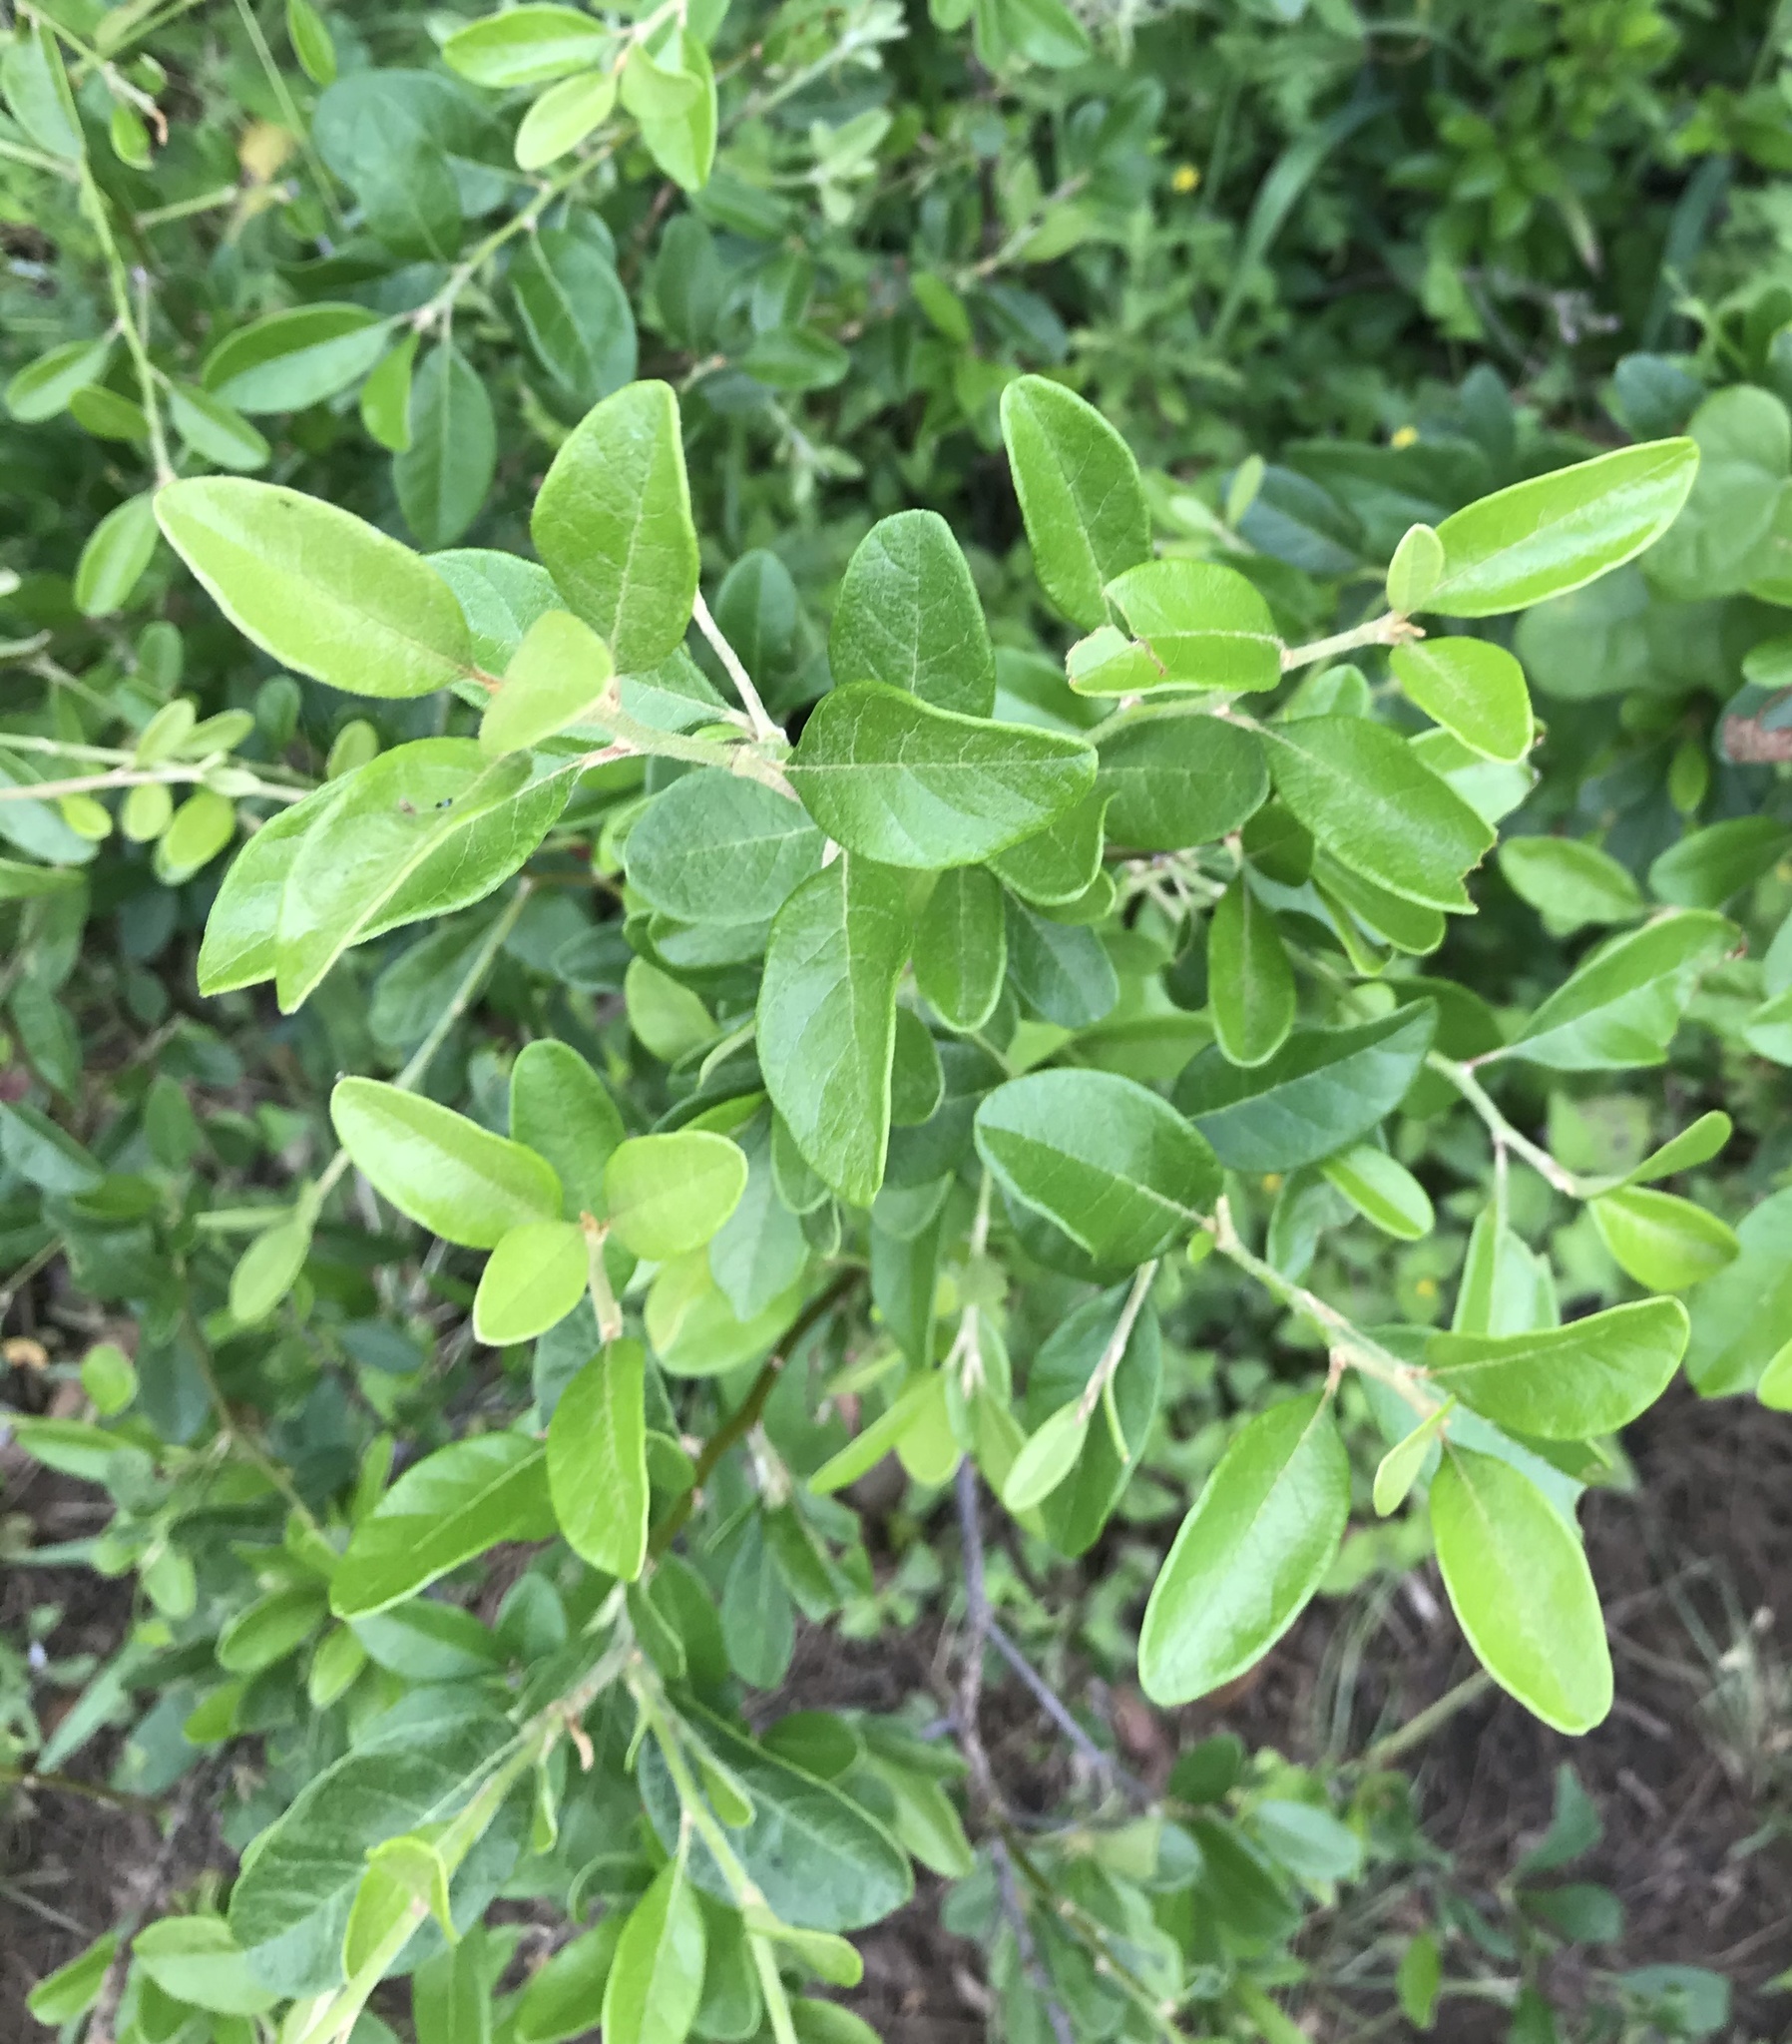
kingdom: Plantae
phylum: Tracheophyta
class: Magnoliopsida
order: Ericales
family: Sapotaceae
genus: Sideroxylon
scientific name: Sideroxylon lanuginosum
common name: Chittamwood
